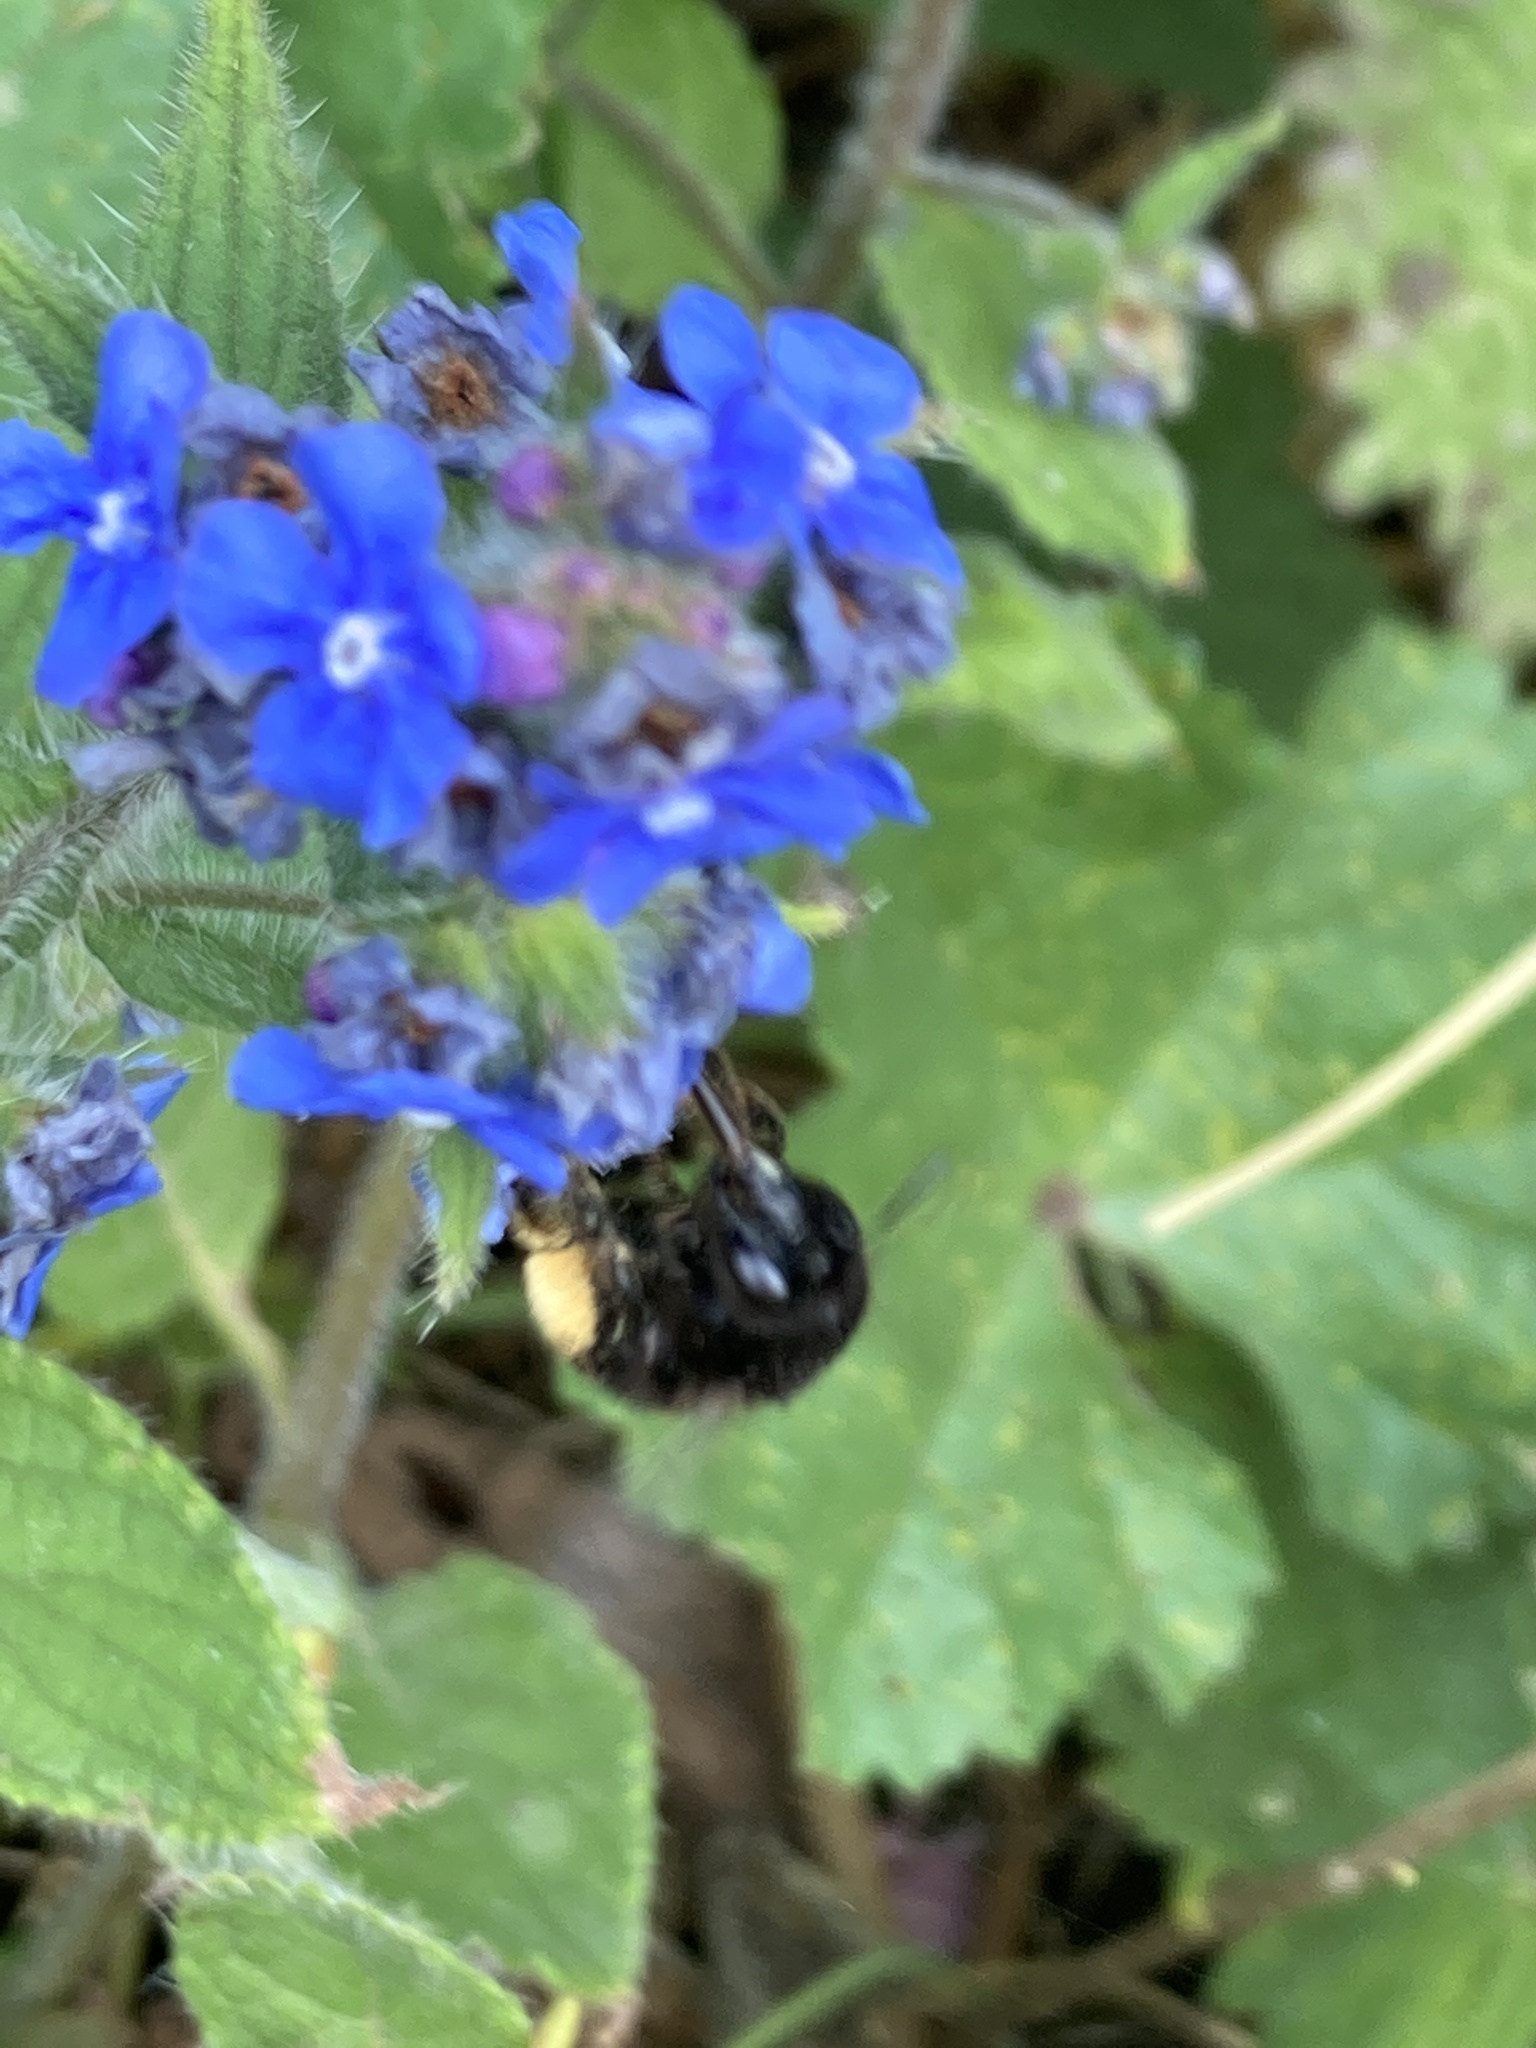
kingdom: Animalia
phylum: Arthropoda
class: Insecta
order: Hymenoptera
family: Apidae
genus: Anthophora
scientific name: Anthophora plumipes
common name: Hairy-footed flower bee
